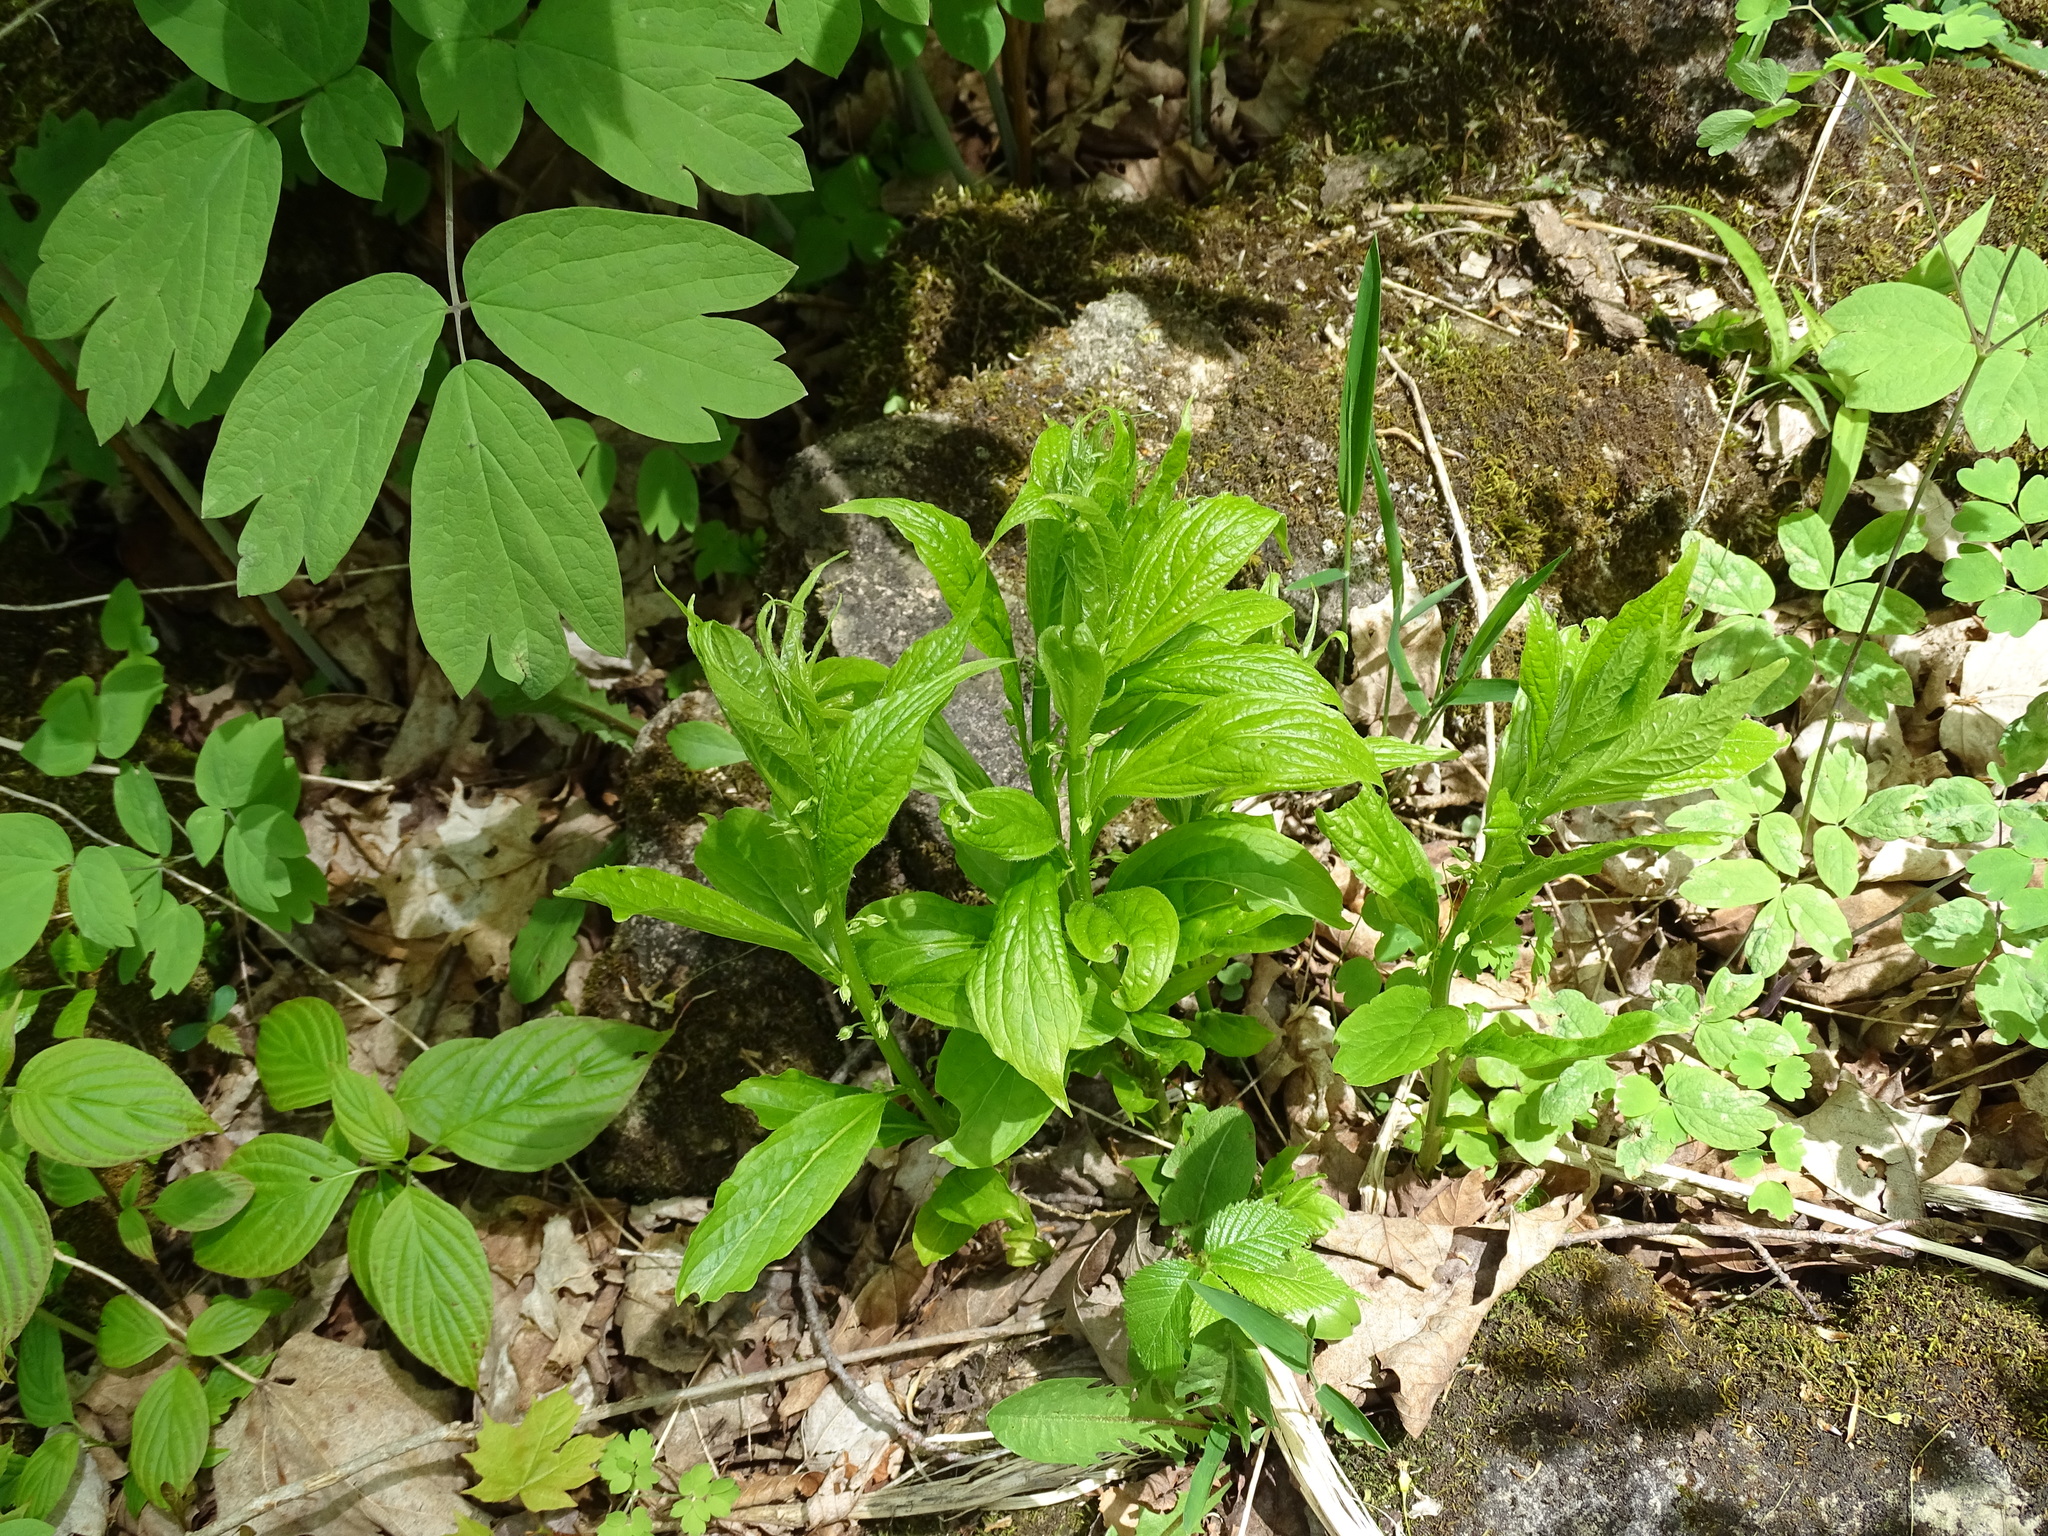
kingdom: Plantae
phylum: Tracheophyta
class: Magnoliopsida
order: Malpighiales
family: Violaceae
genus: Cubelium
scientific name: Cubelium concolor
